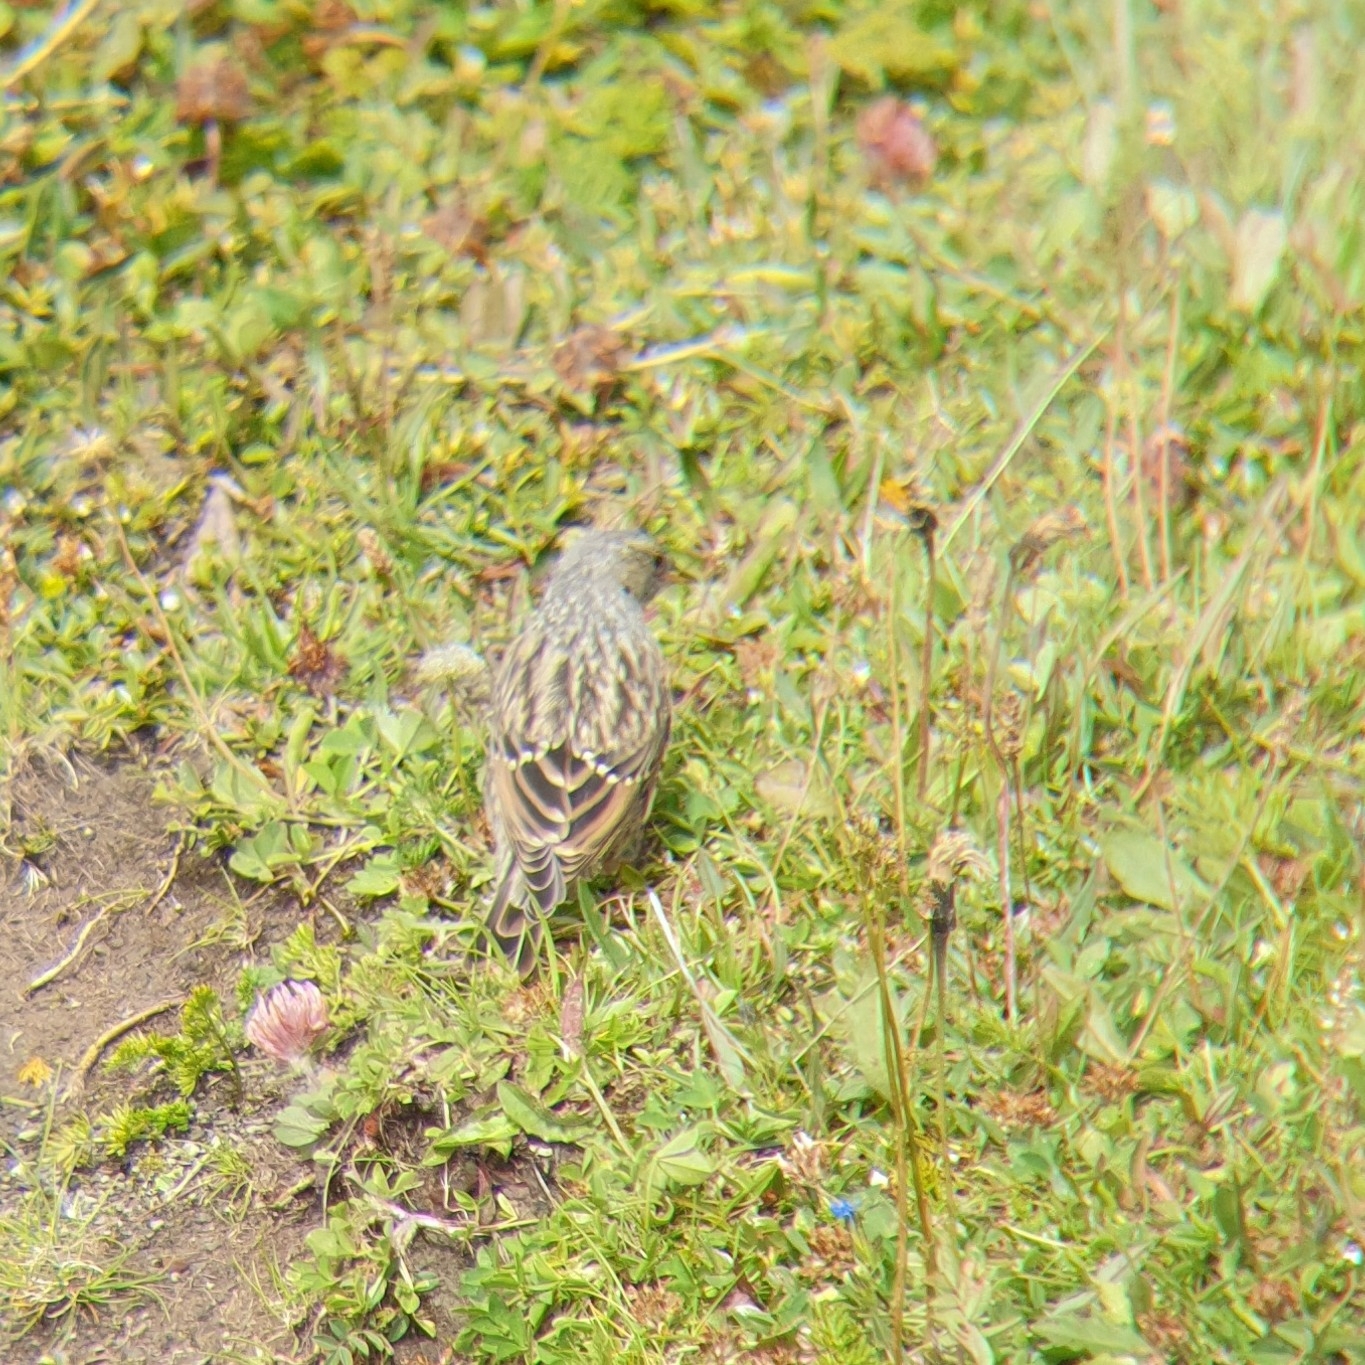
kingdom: Animalia
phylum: Chordata
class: Aves
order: Passeriformes
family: Prunellidae
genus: Prunella
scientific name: Prunella collaris
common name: Alpine accentor
